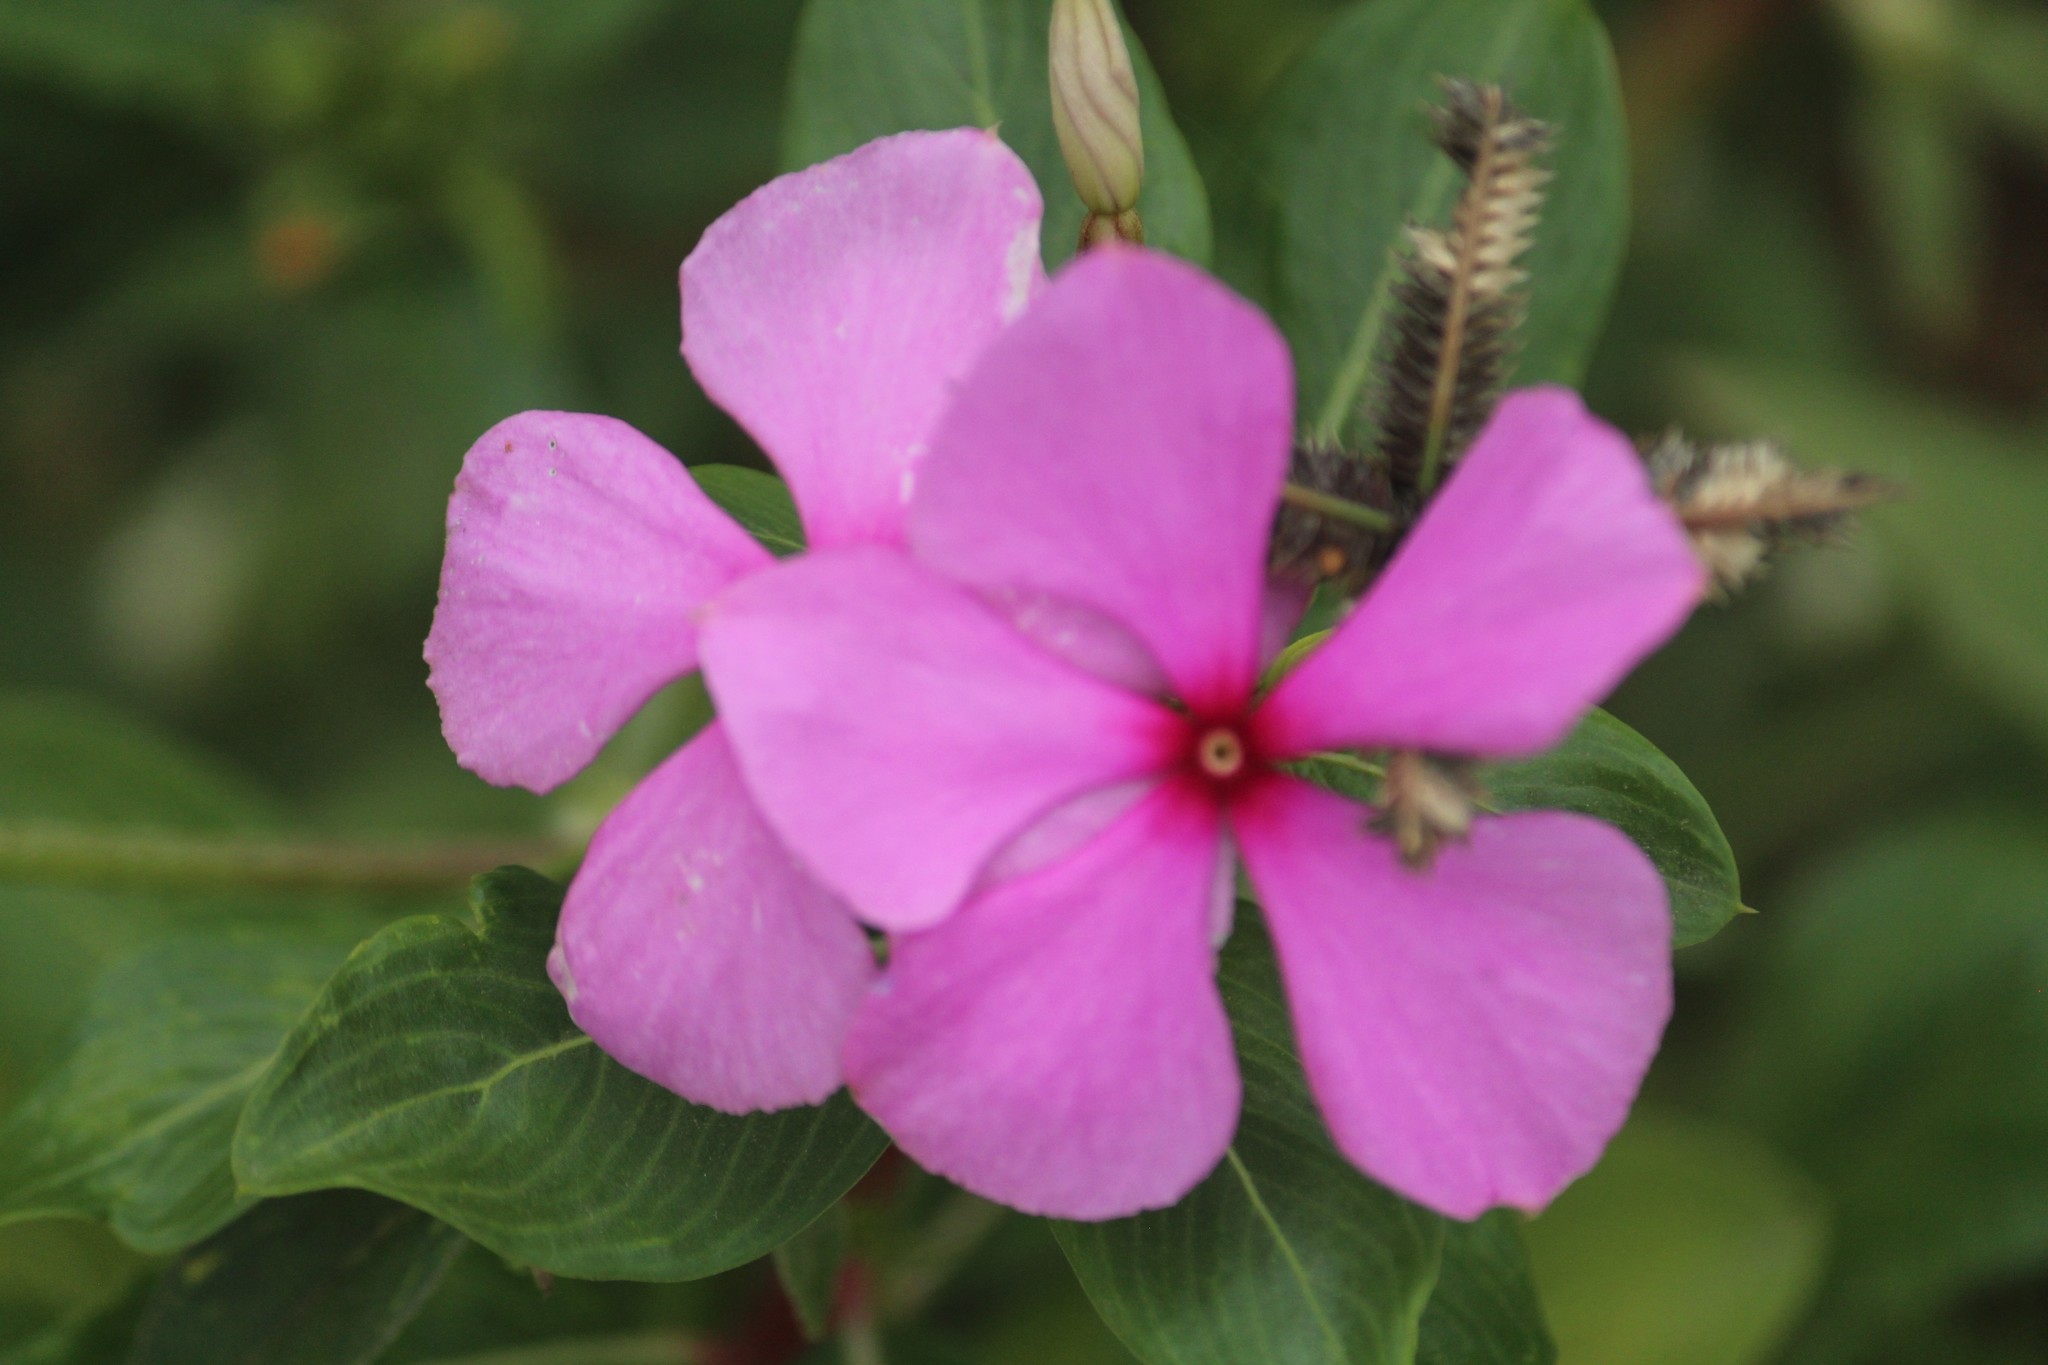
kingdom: Plantae
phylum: Tracheophyta
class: Magnoliopsida
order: Gentianales
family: Apocynaceae
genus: Catharanthus
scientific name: Catharanthus roseus
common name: Madagascar periwinkle
